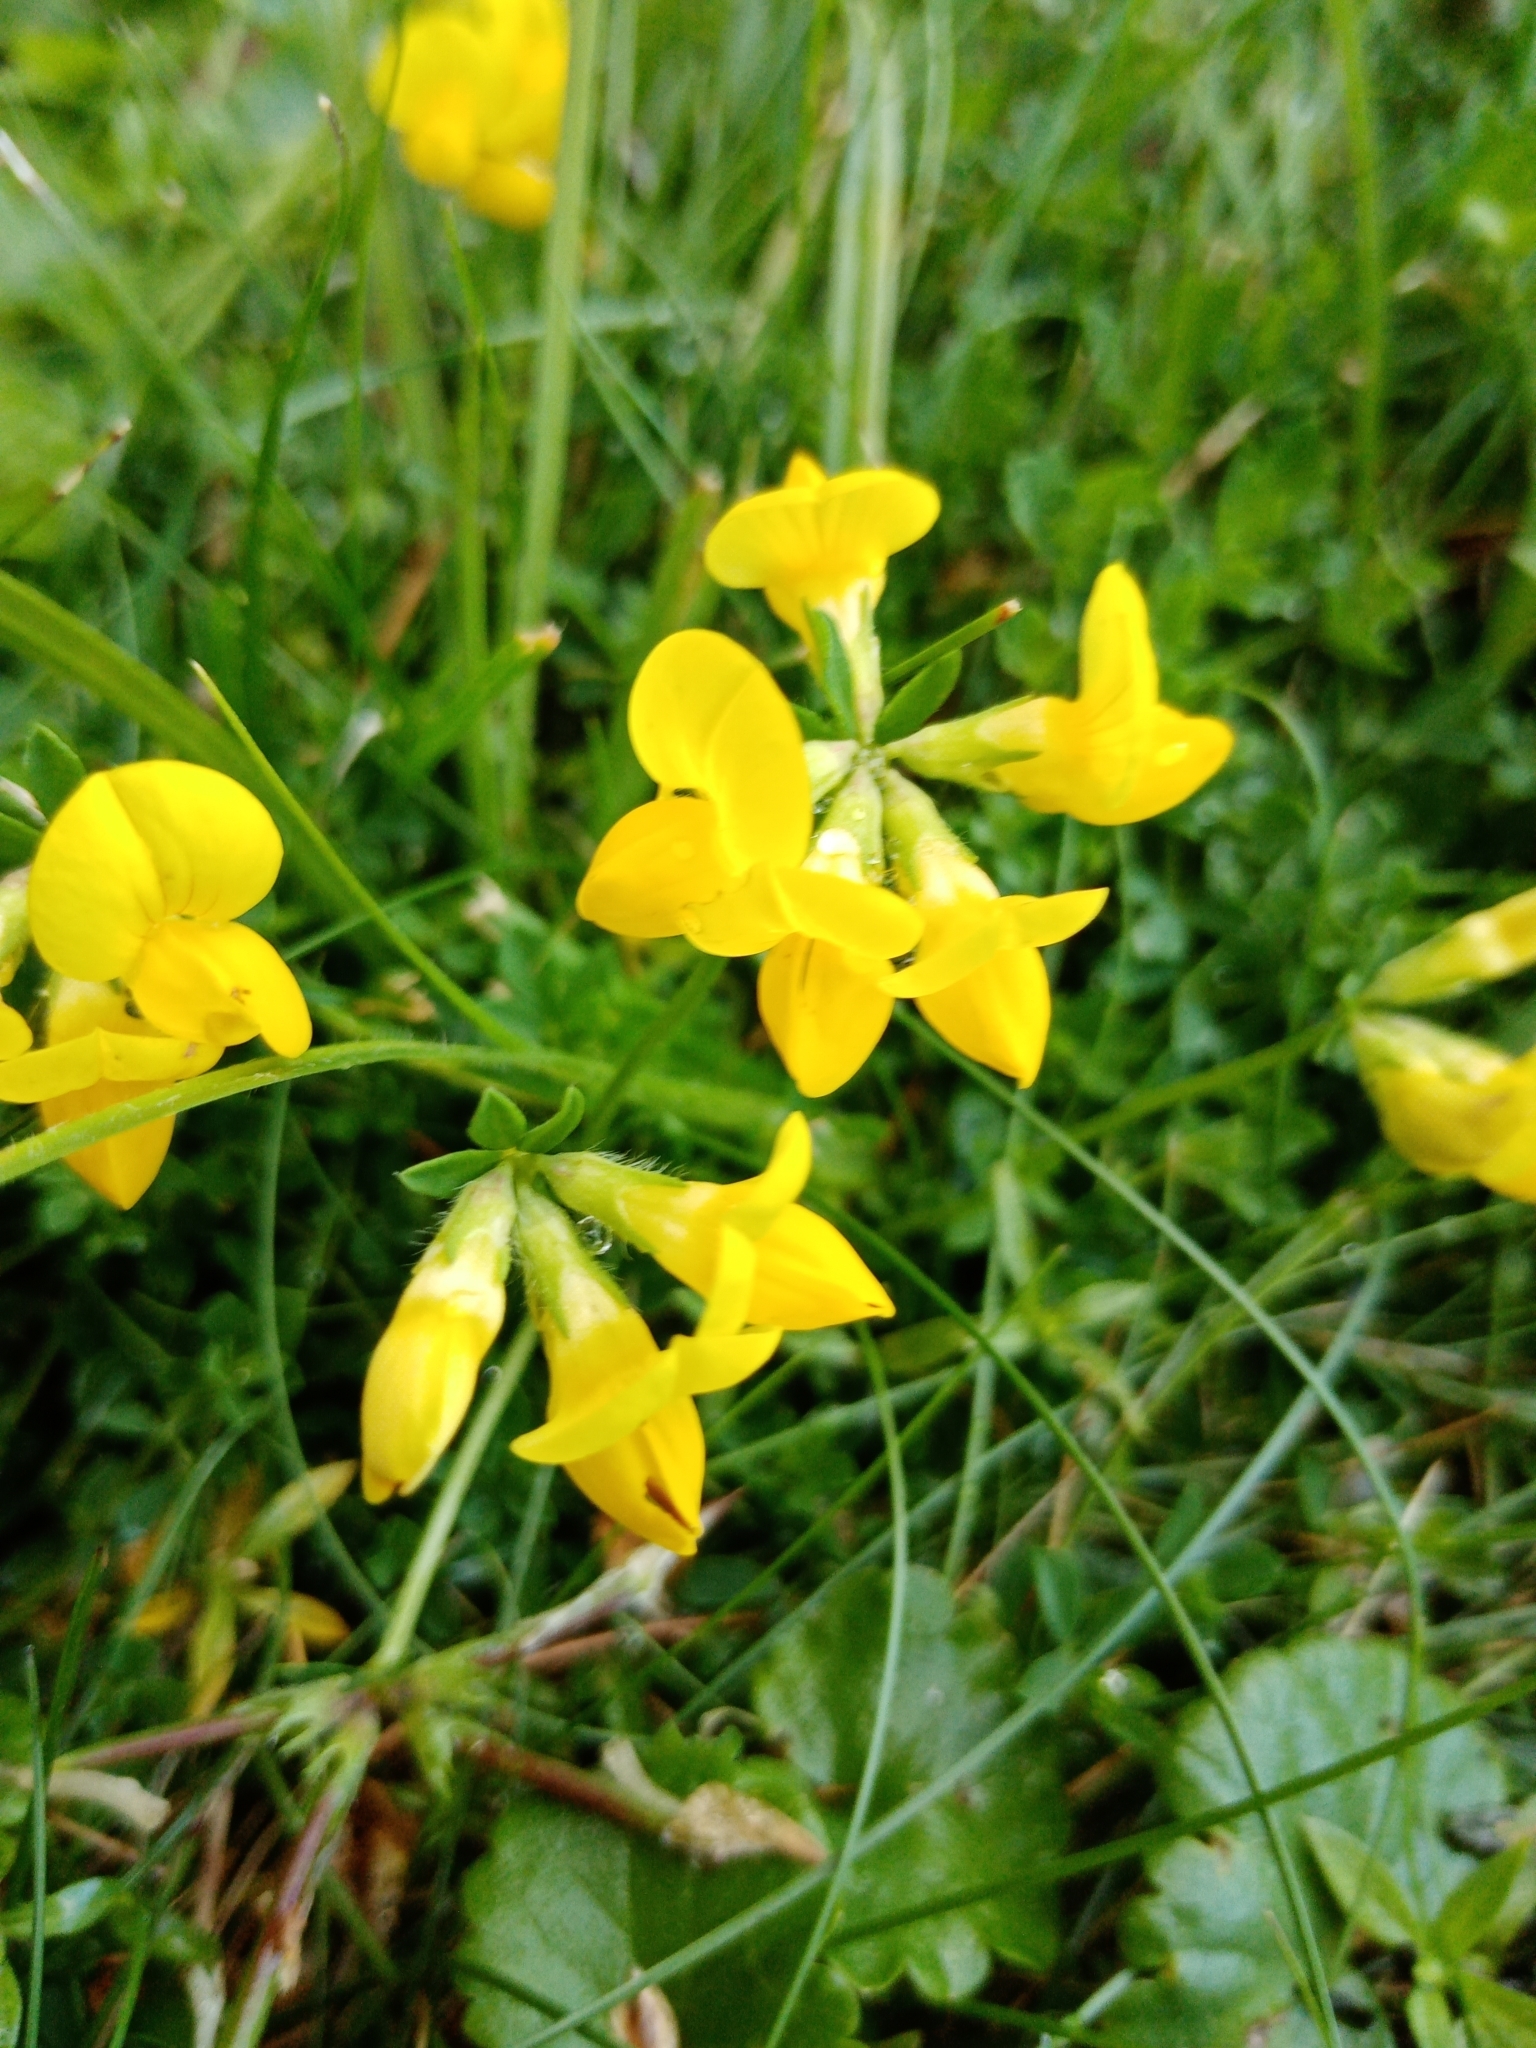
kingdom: Plantae
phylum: Tracheophyta
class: Magnoliopsida
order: Fabales
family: Fabaceae
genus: Lotus
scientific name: Lotus corniculatus
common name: Common bird's-foot-trefoil
